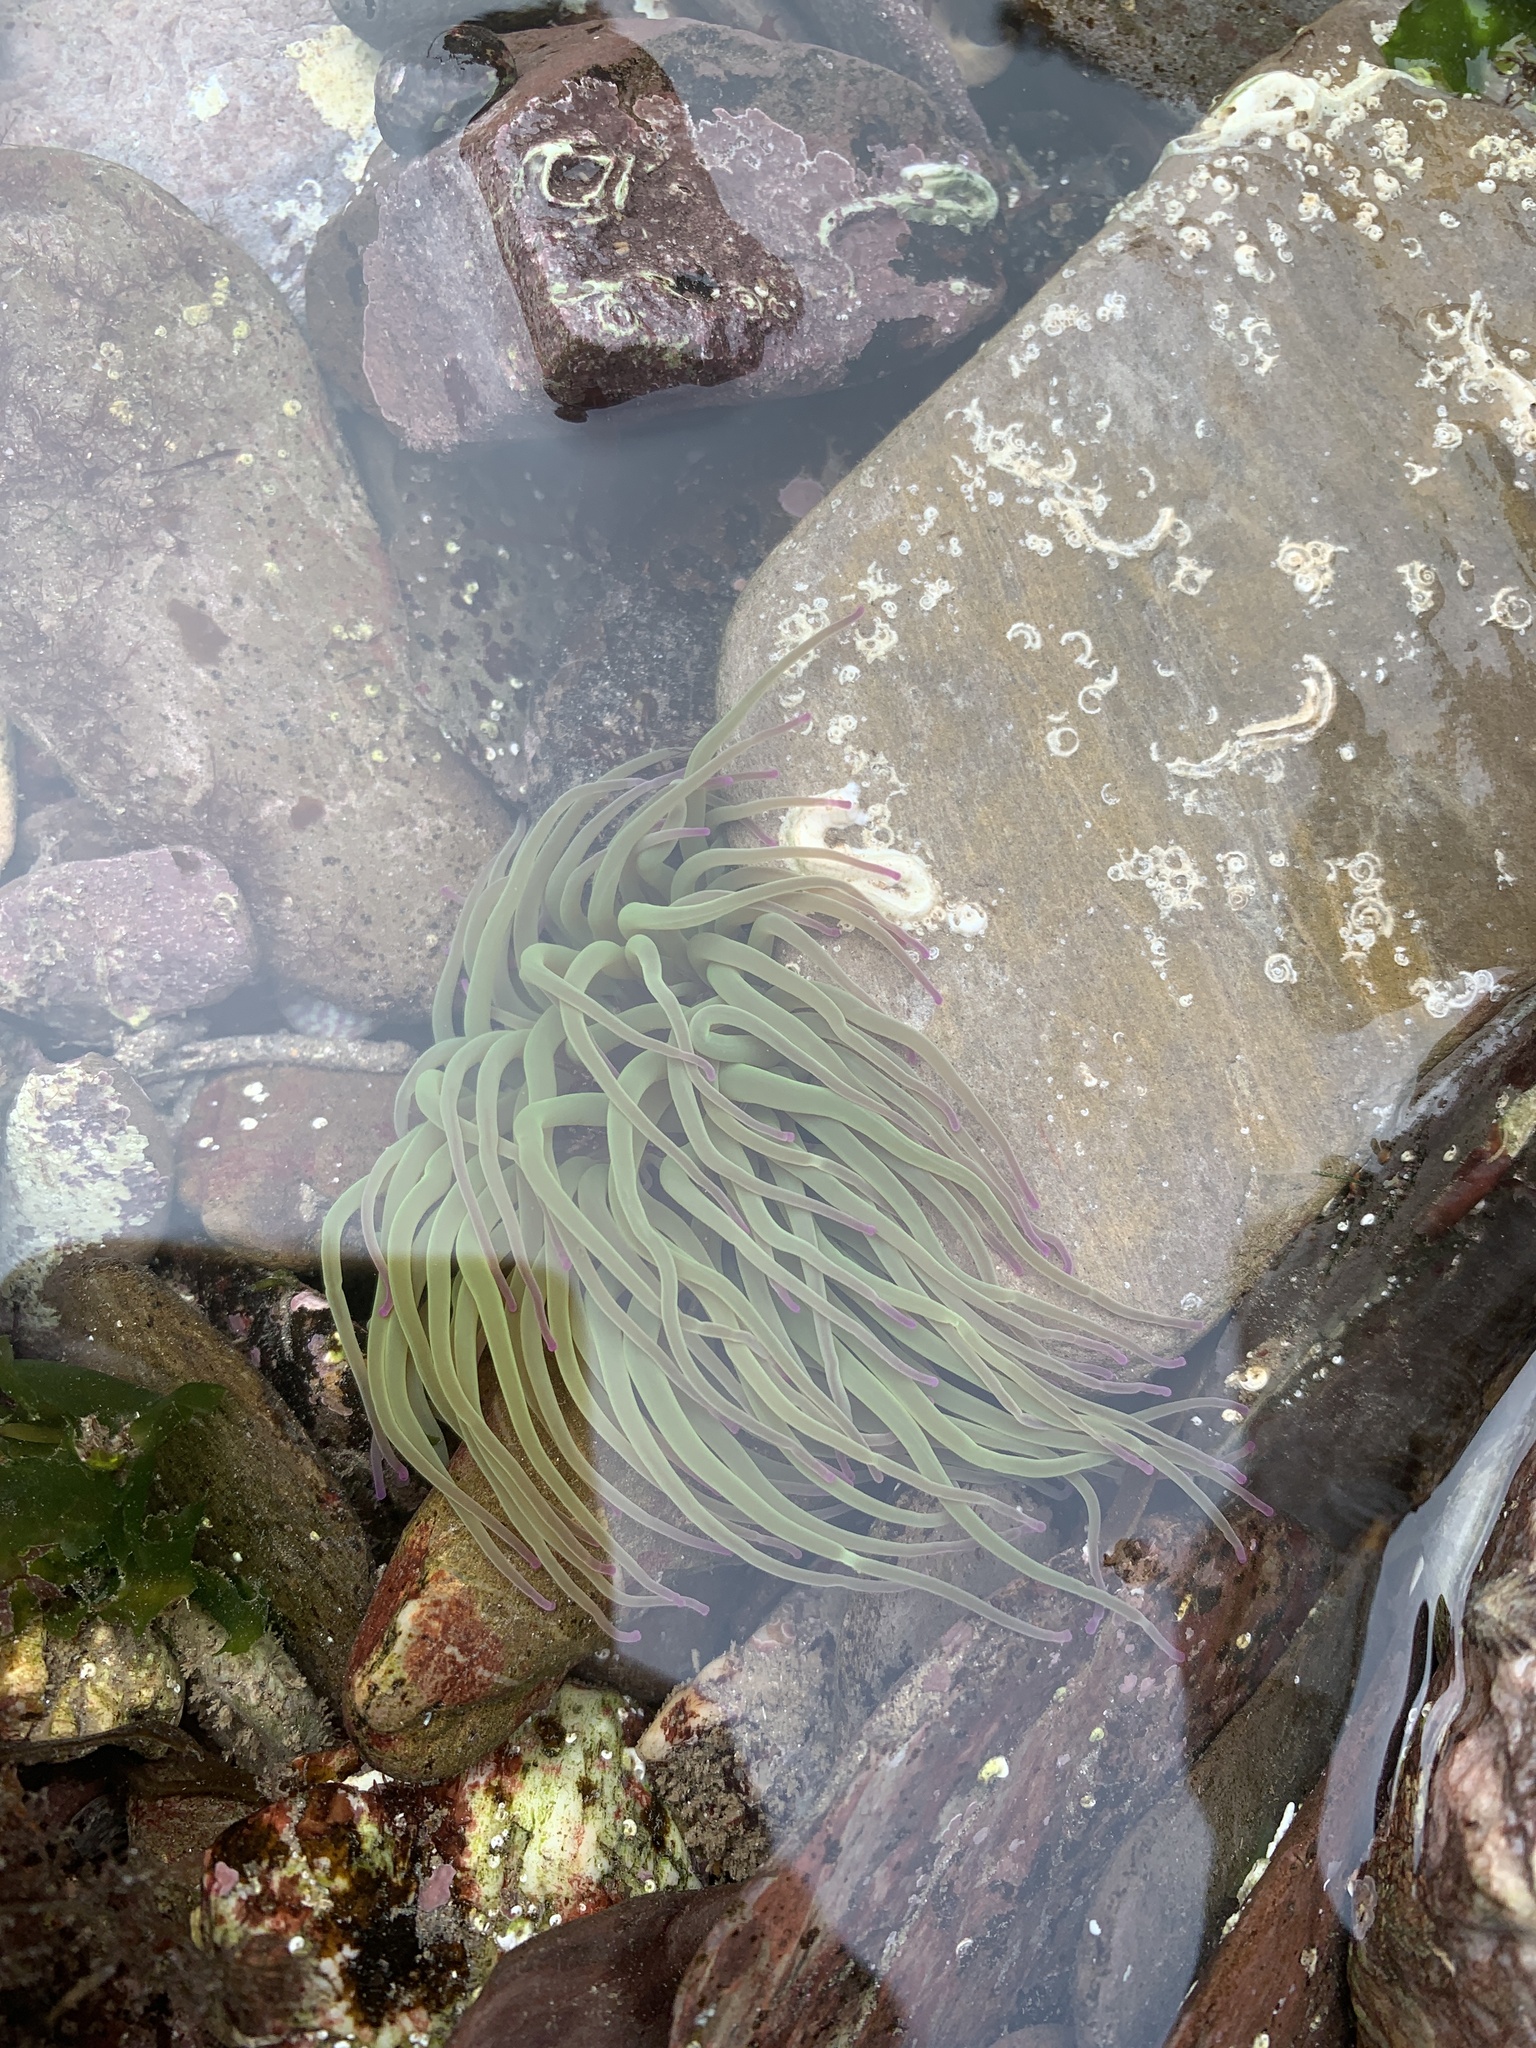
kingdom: Animalia
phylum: Cnidaria
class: Anthozoa
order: Actiniaria
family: Actiniidae
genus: Anemonia
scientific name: Anemonia viridis
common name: Snakelocks anemone
